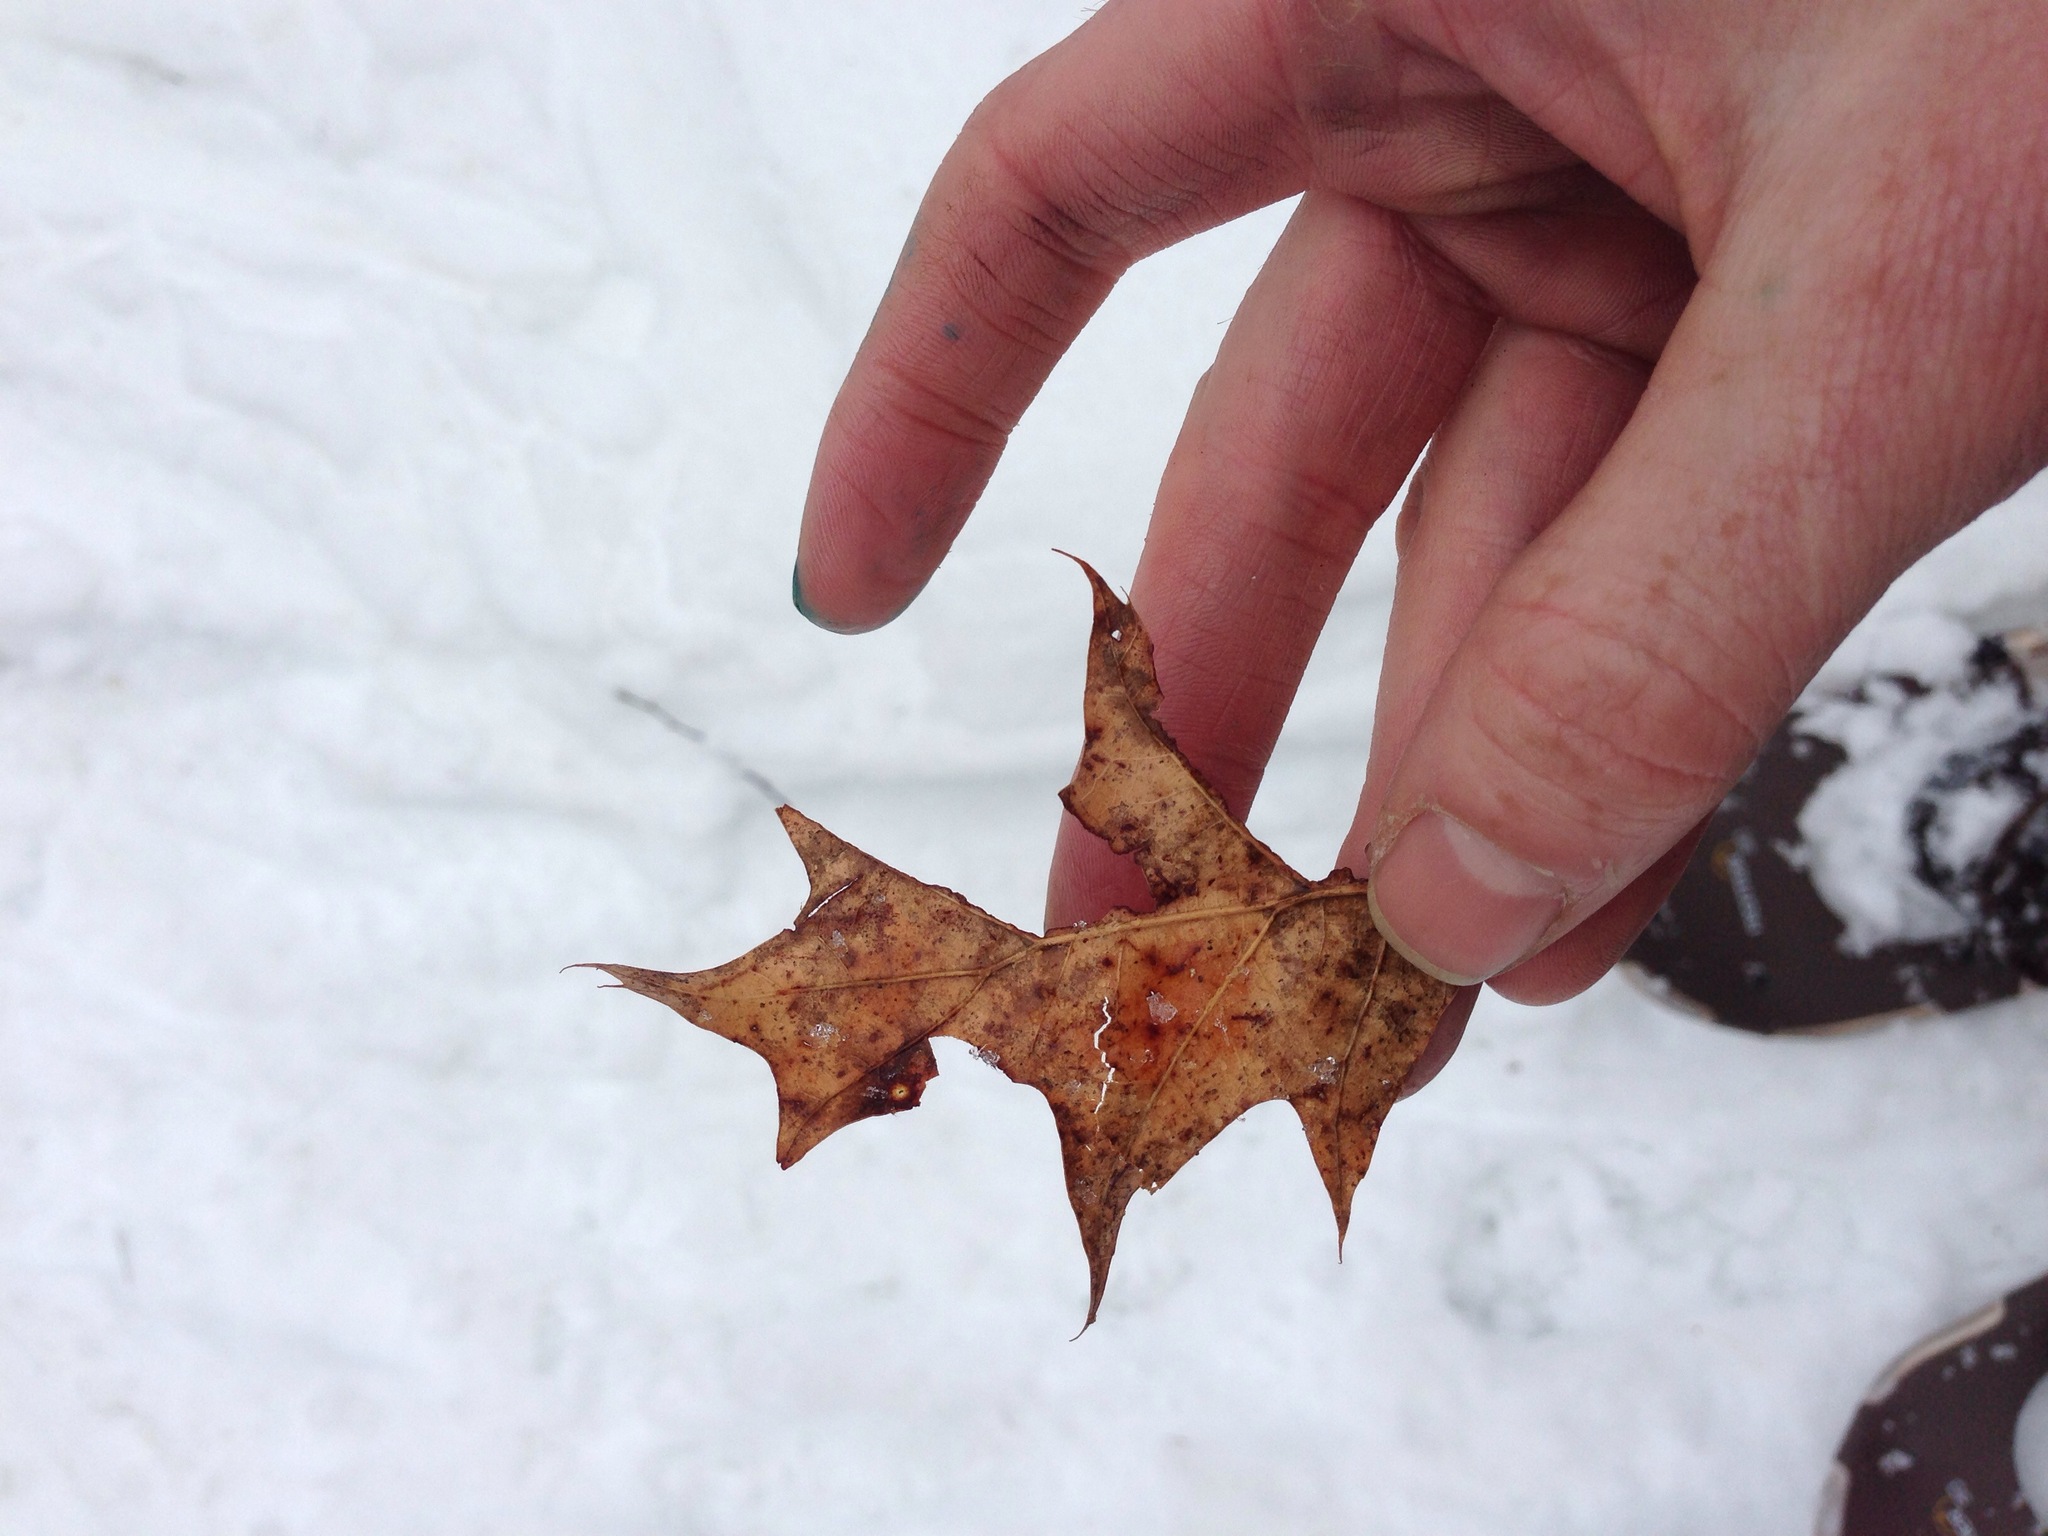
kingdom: Plantae
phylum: Tracheophyta
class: Magnoliopsida
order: Fagales
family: Fagaceae
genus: Quercus
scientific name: Quercus rubra
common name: Red oak
